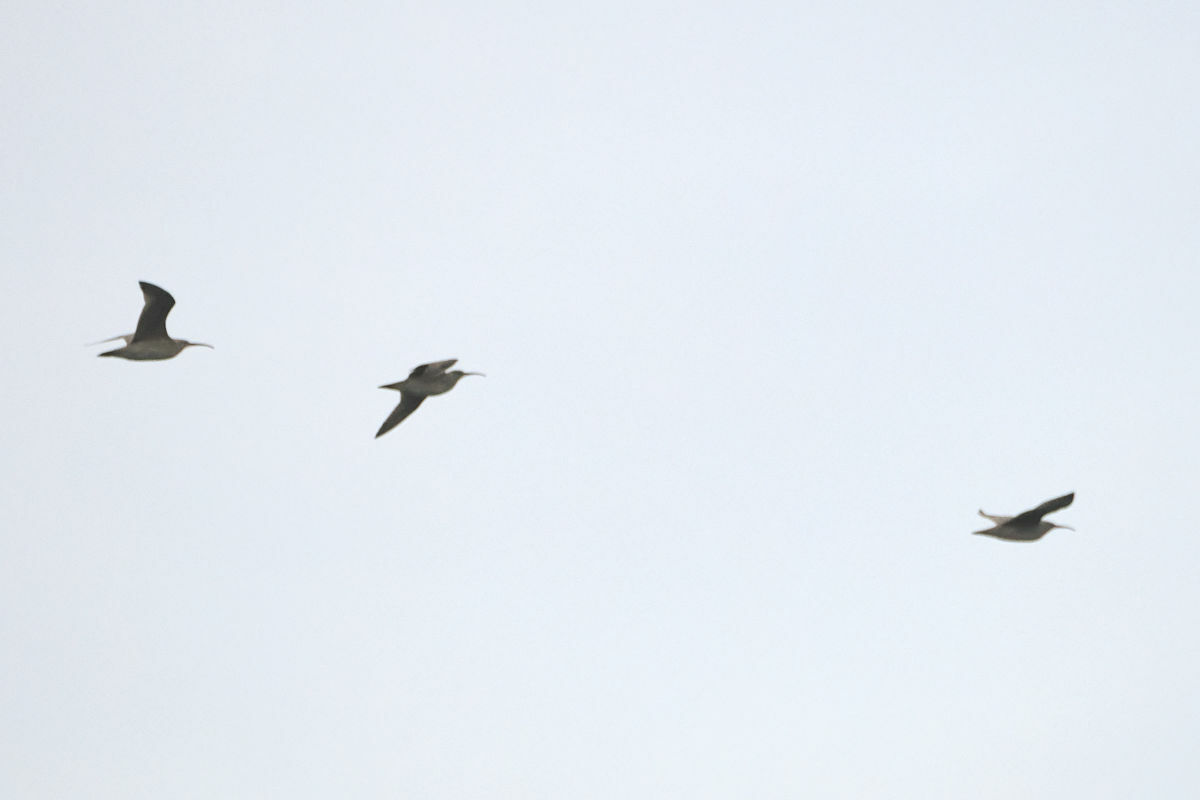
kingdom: Animalia
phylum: Chordata
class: Aves
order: Charadriiformes
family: Scolopacidae
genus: Numenius
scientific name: Numenius hudsonicus
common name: Hudsonian whimbrel
